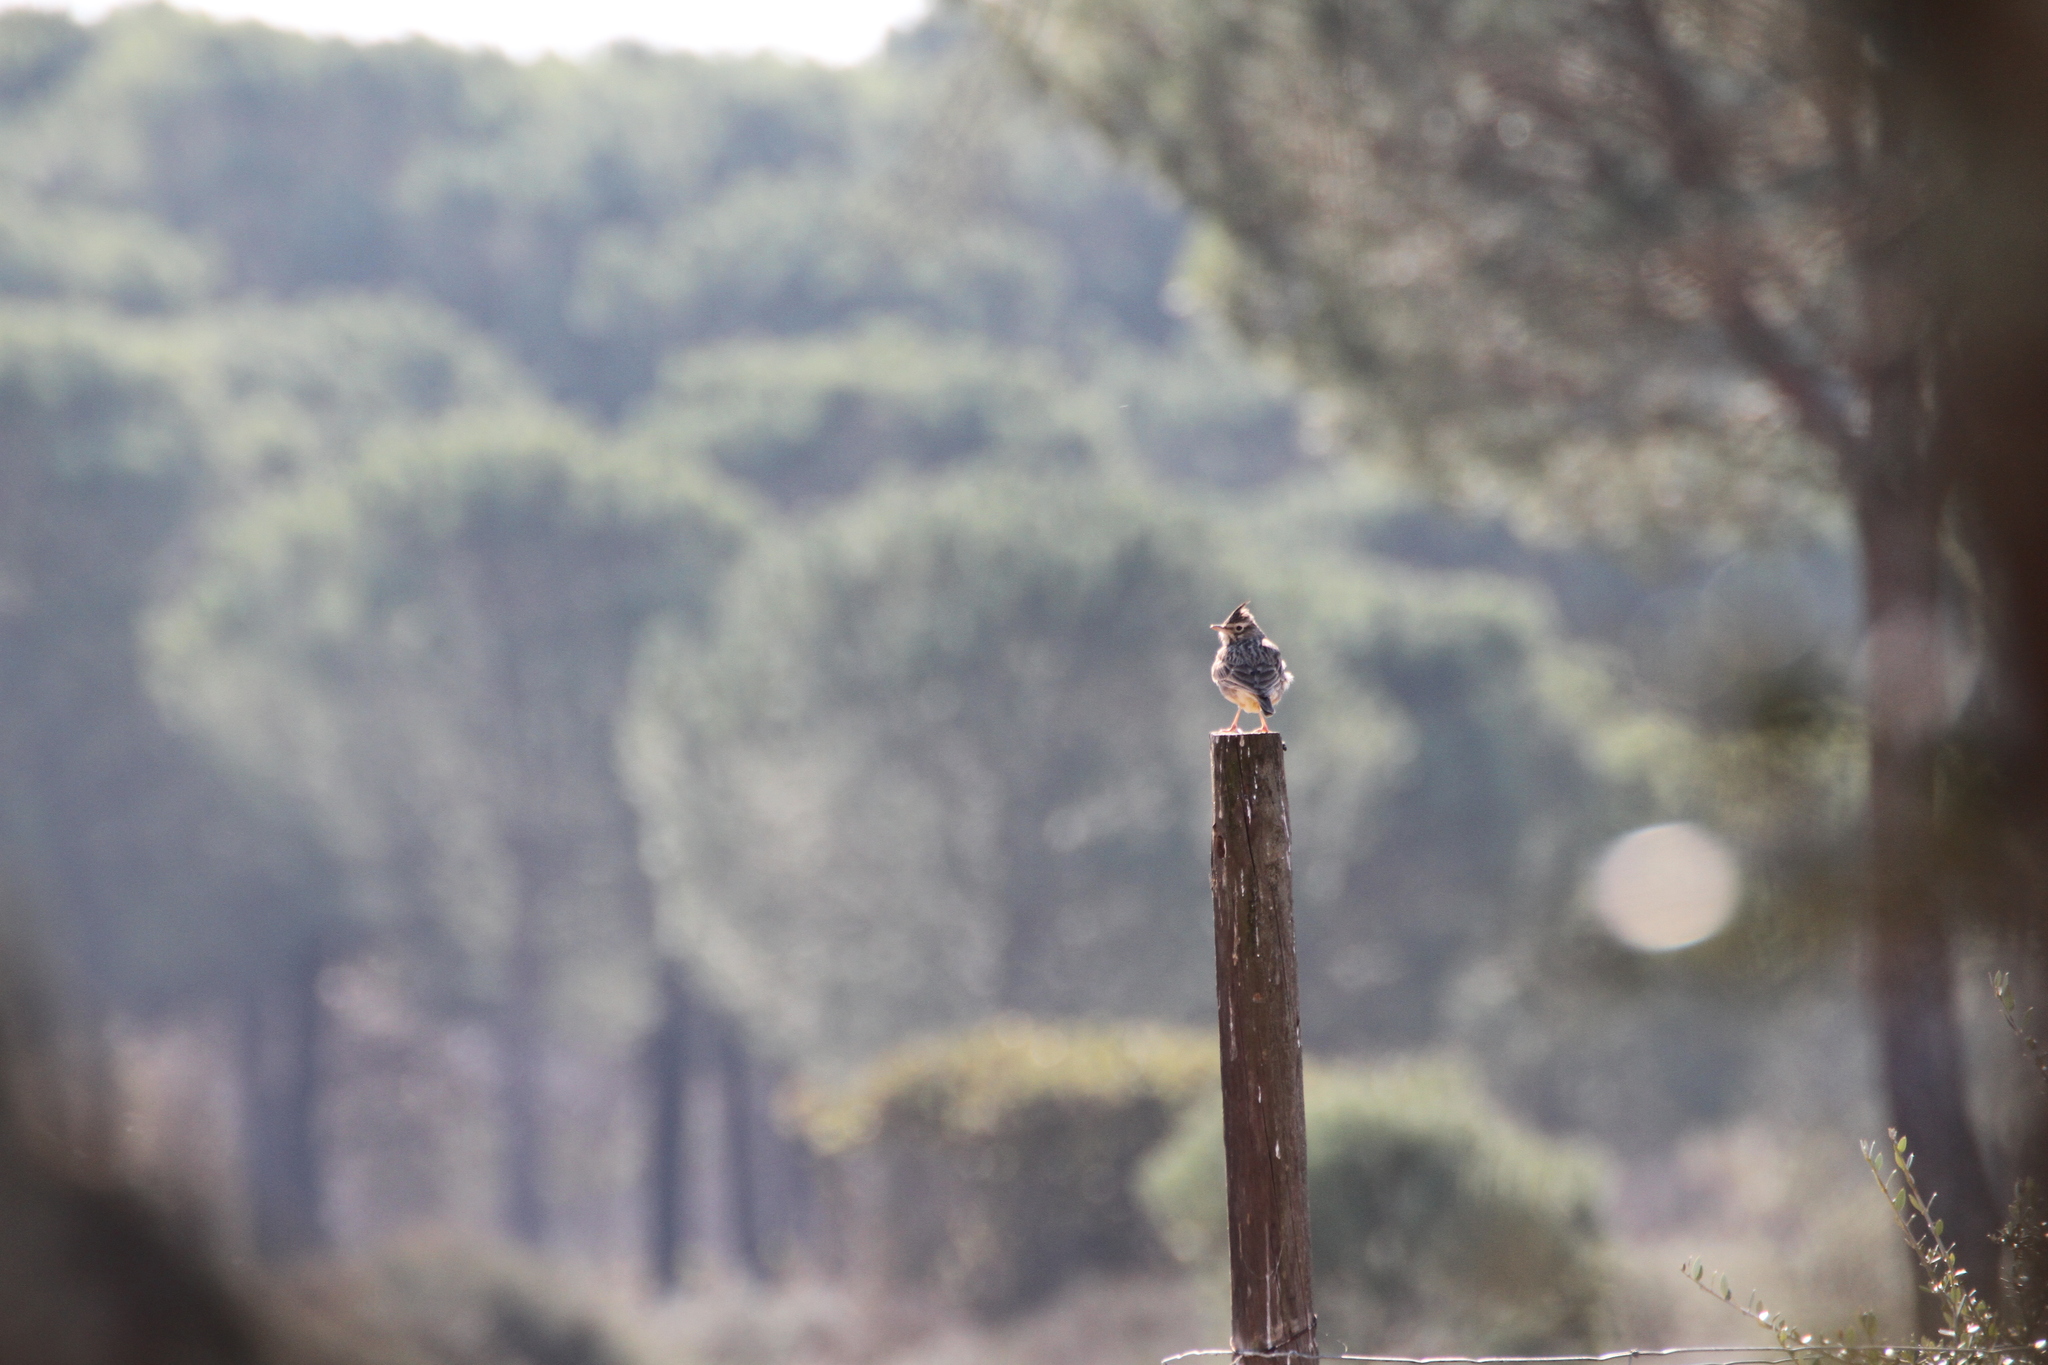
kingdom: Animalia
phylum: Chordata
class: Aves
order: Passeriformes
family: Alaudidae
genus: Galerida
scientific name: Galerida theklae
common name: Thekla lark
